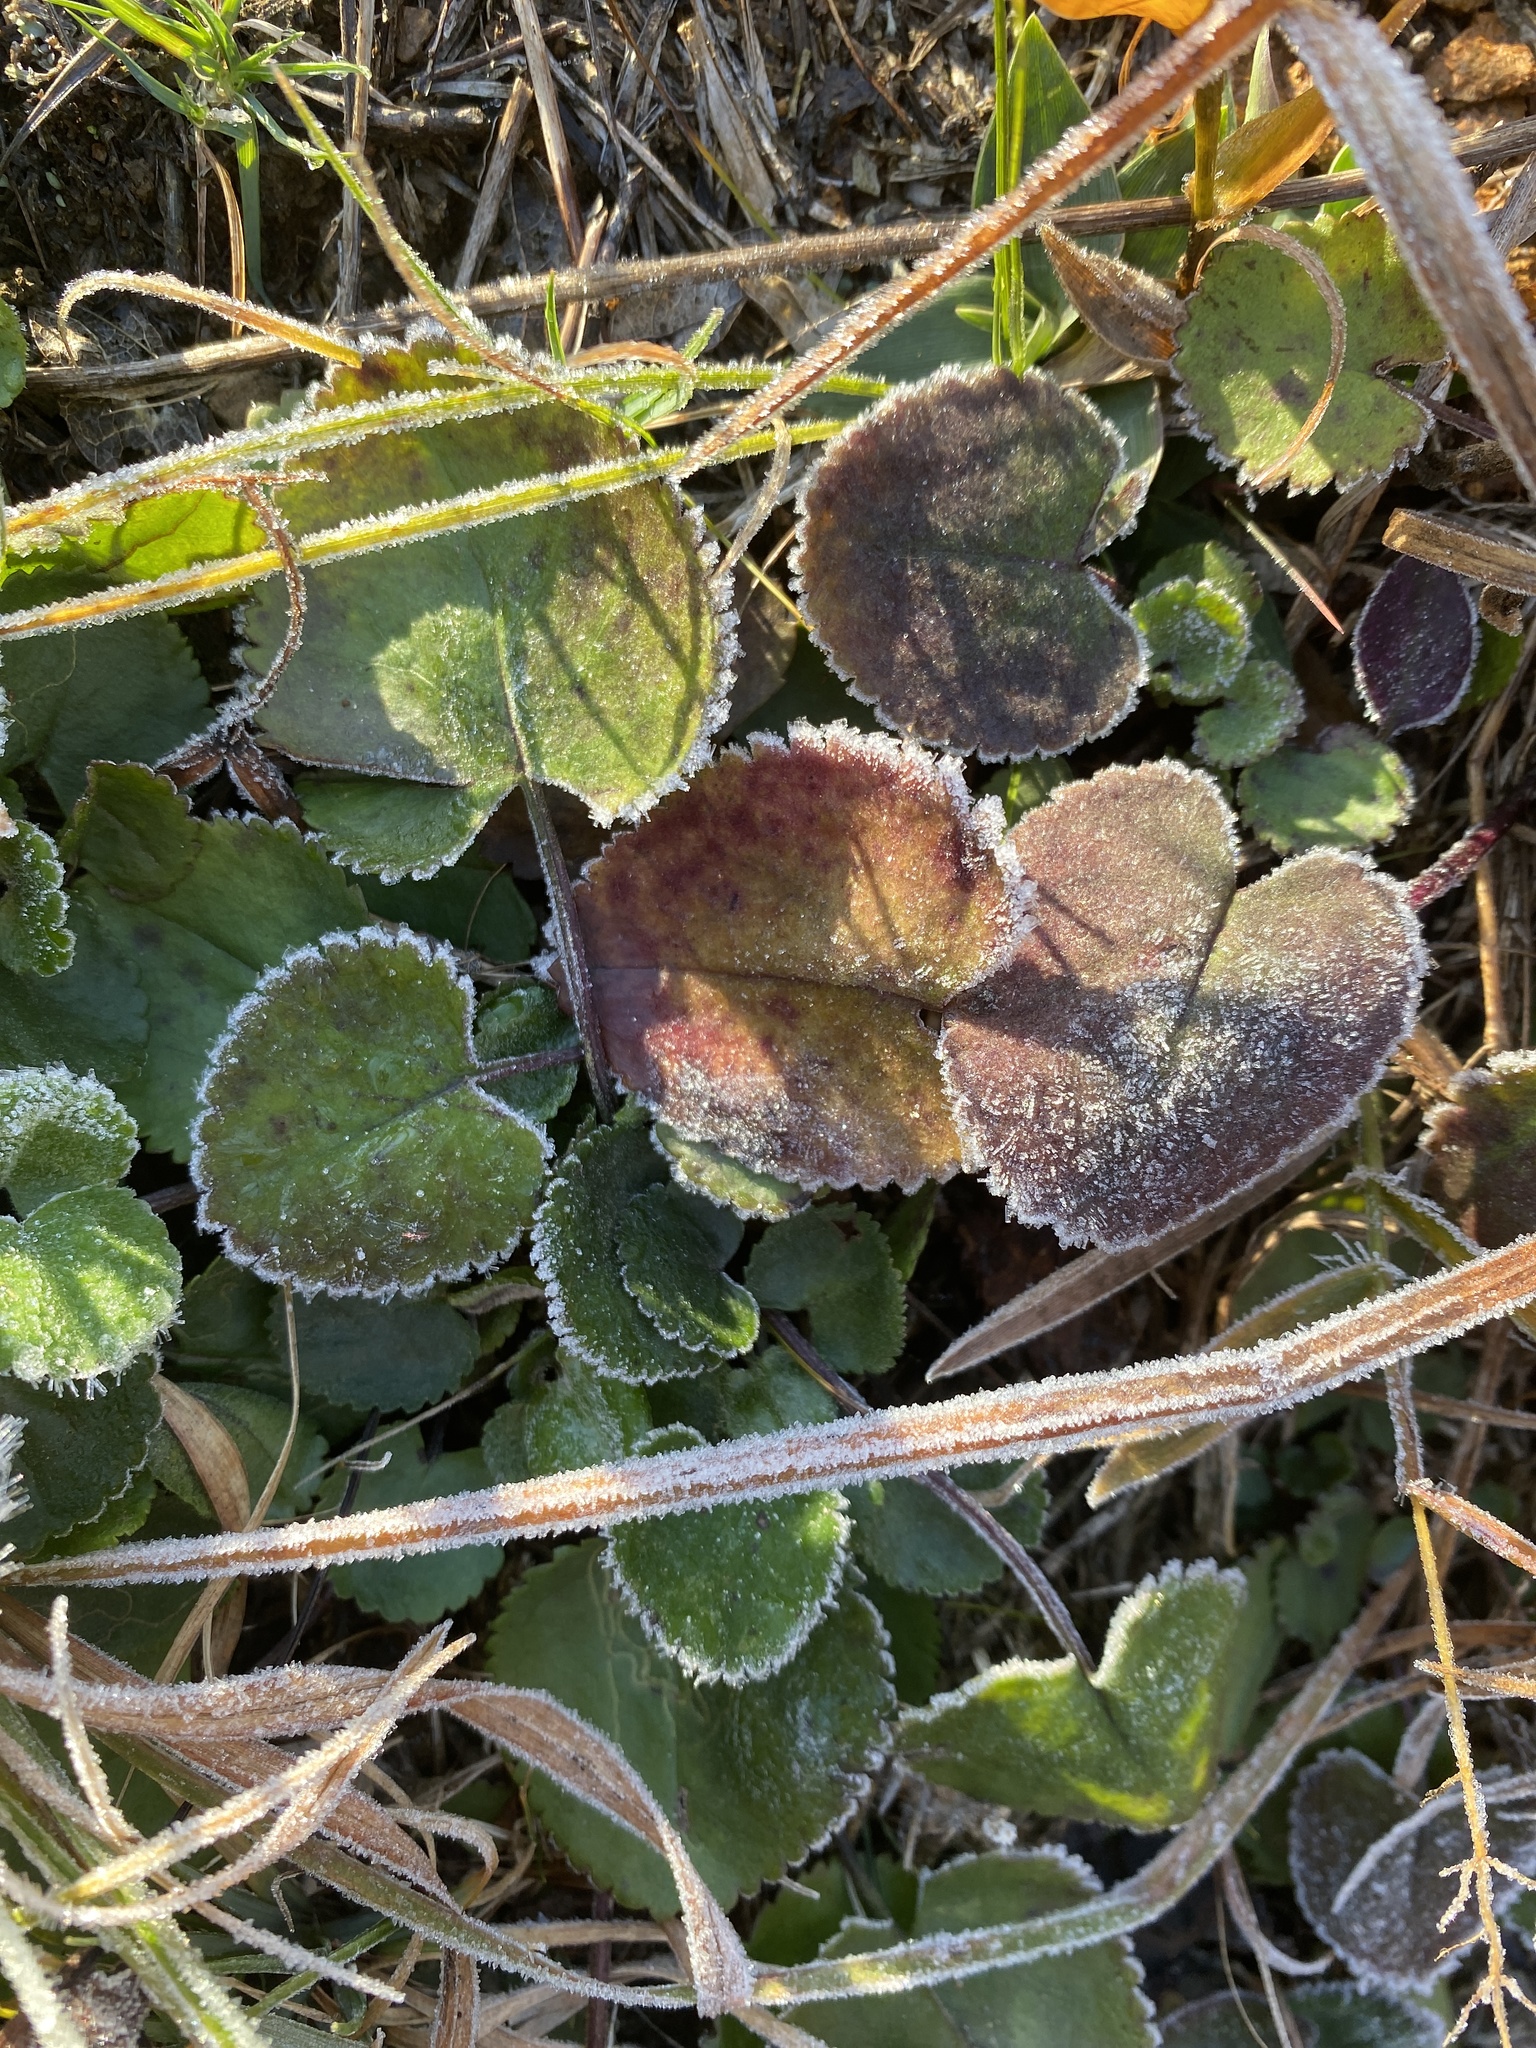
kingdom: Plantae
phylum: Tracheophyta
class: Magnoliopsida
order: Asterales
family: Asteraceae
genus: Packera
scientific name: Packera serpenticola
